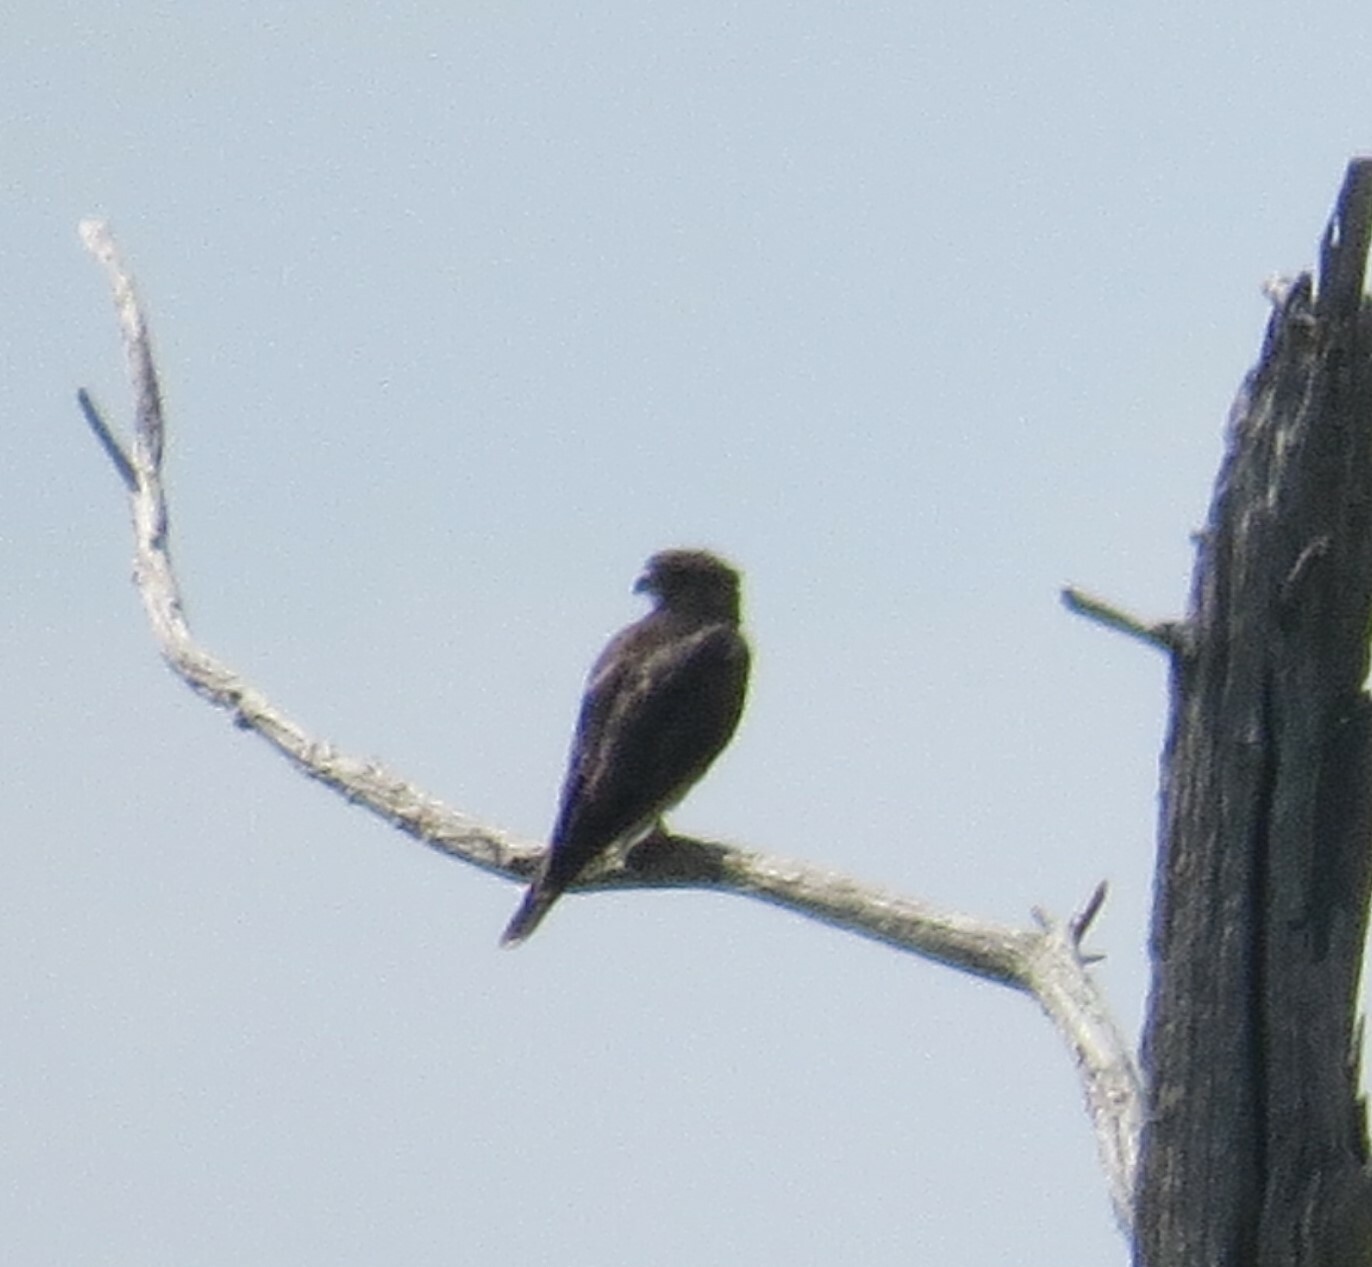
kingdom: Animalia
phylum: Chordata
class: Aves
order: Falconiformes
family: Falconidae
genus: Falco
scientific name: Falco columbarius
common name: Merlin
